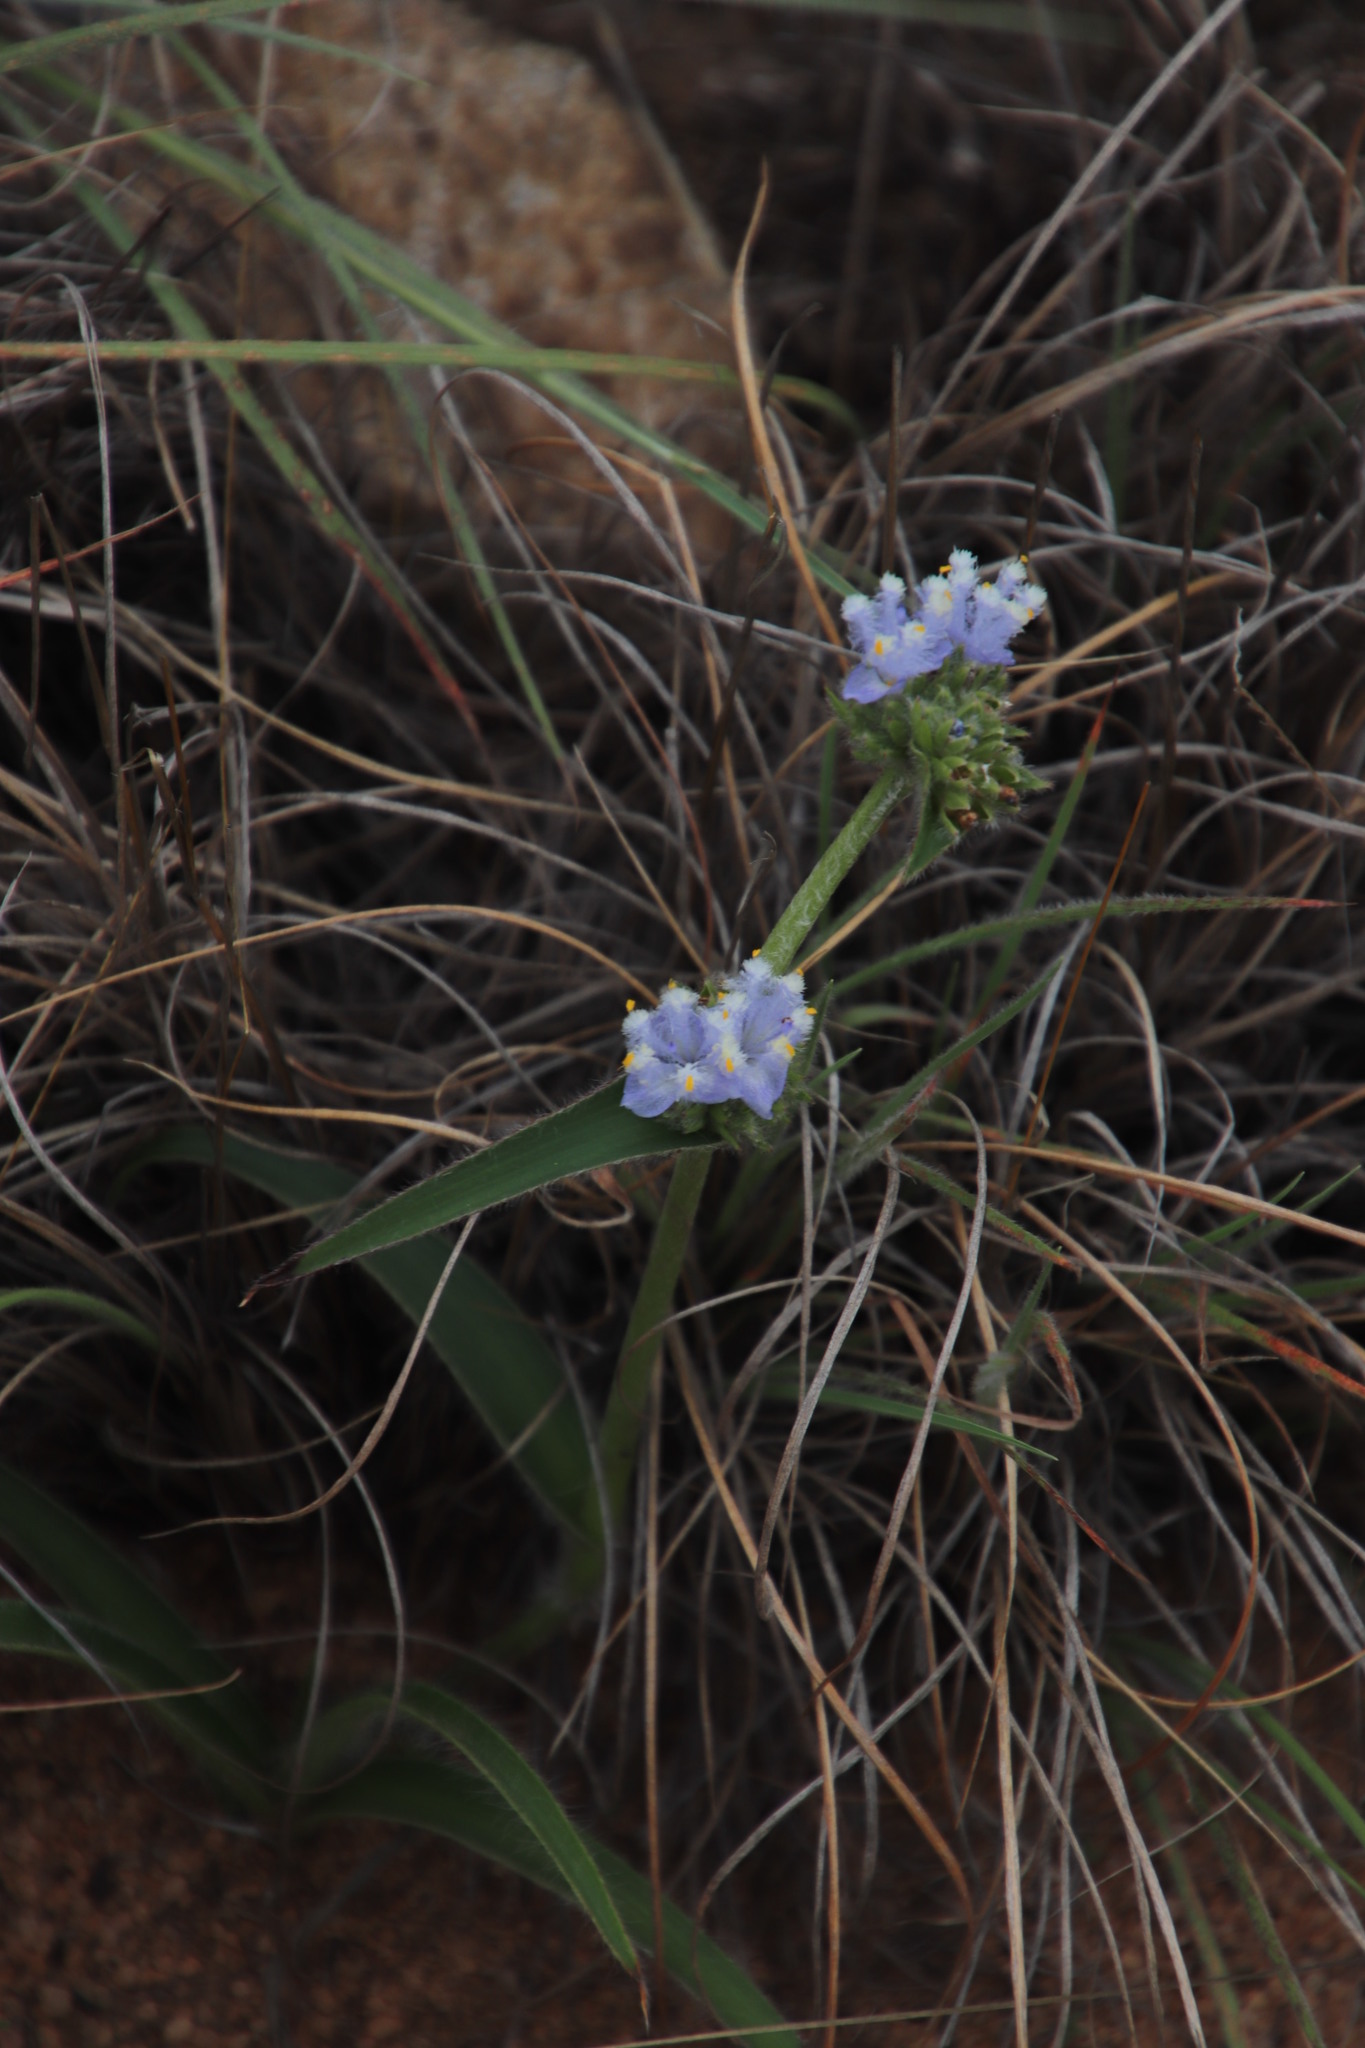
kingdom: Plantae
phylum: Tracheophyta
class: Liliopsida
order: Commelinales
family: Commelinaceae
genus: Cyanotis
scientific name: Cyanotis speciosa
